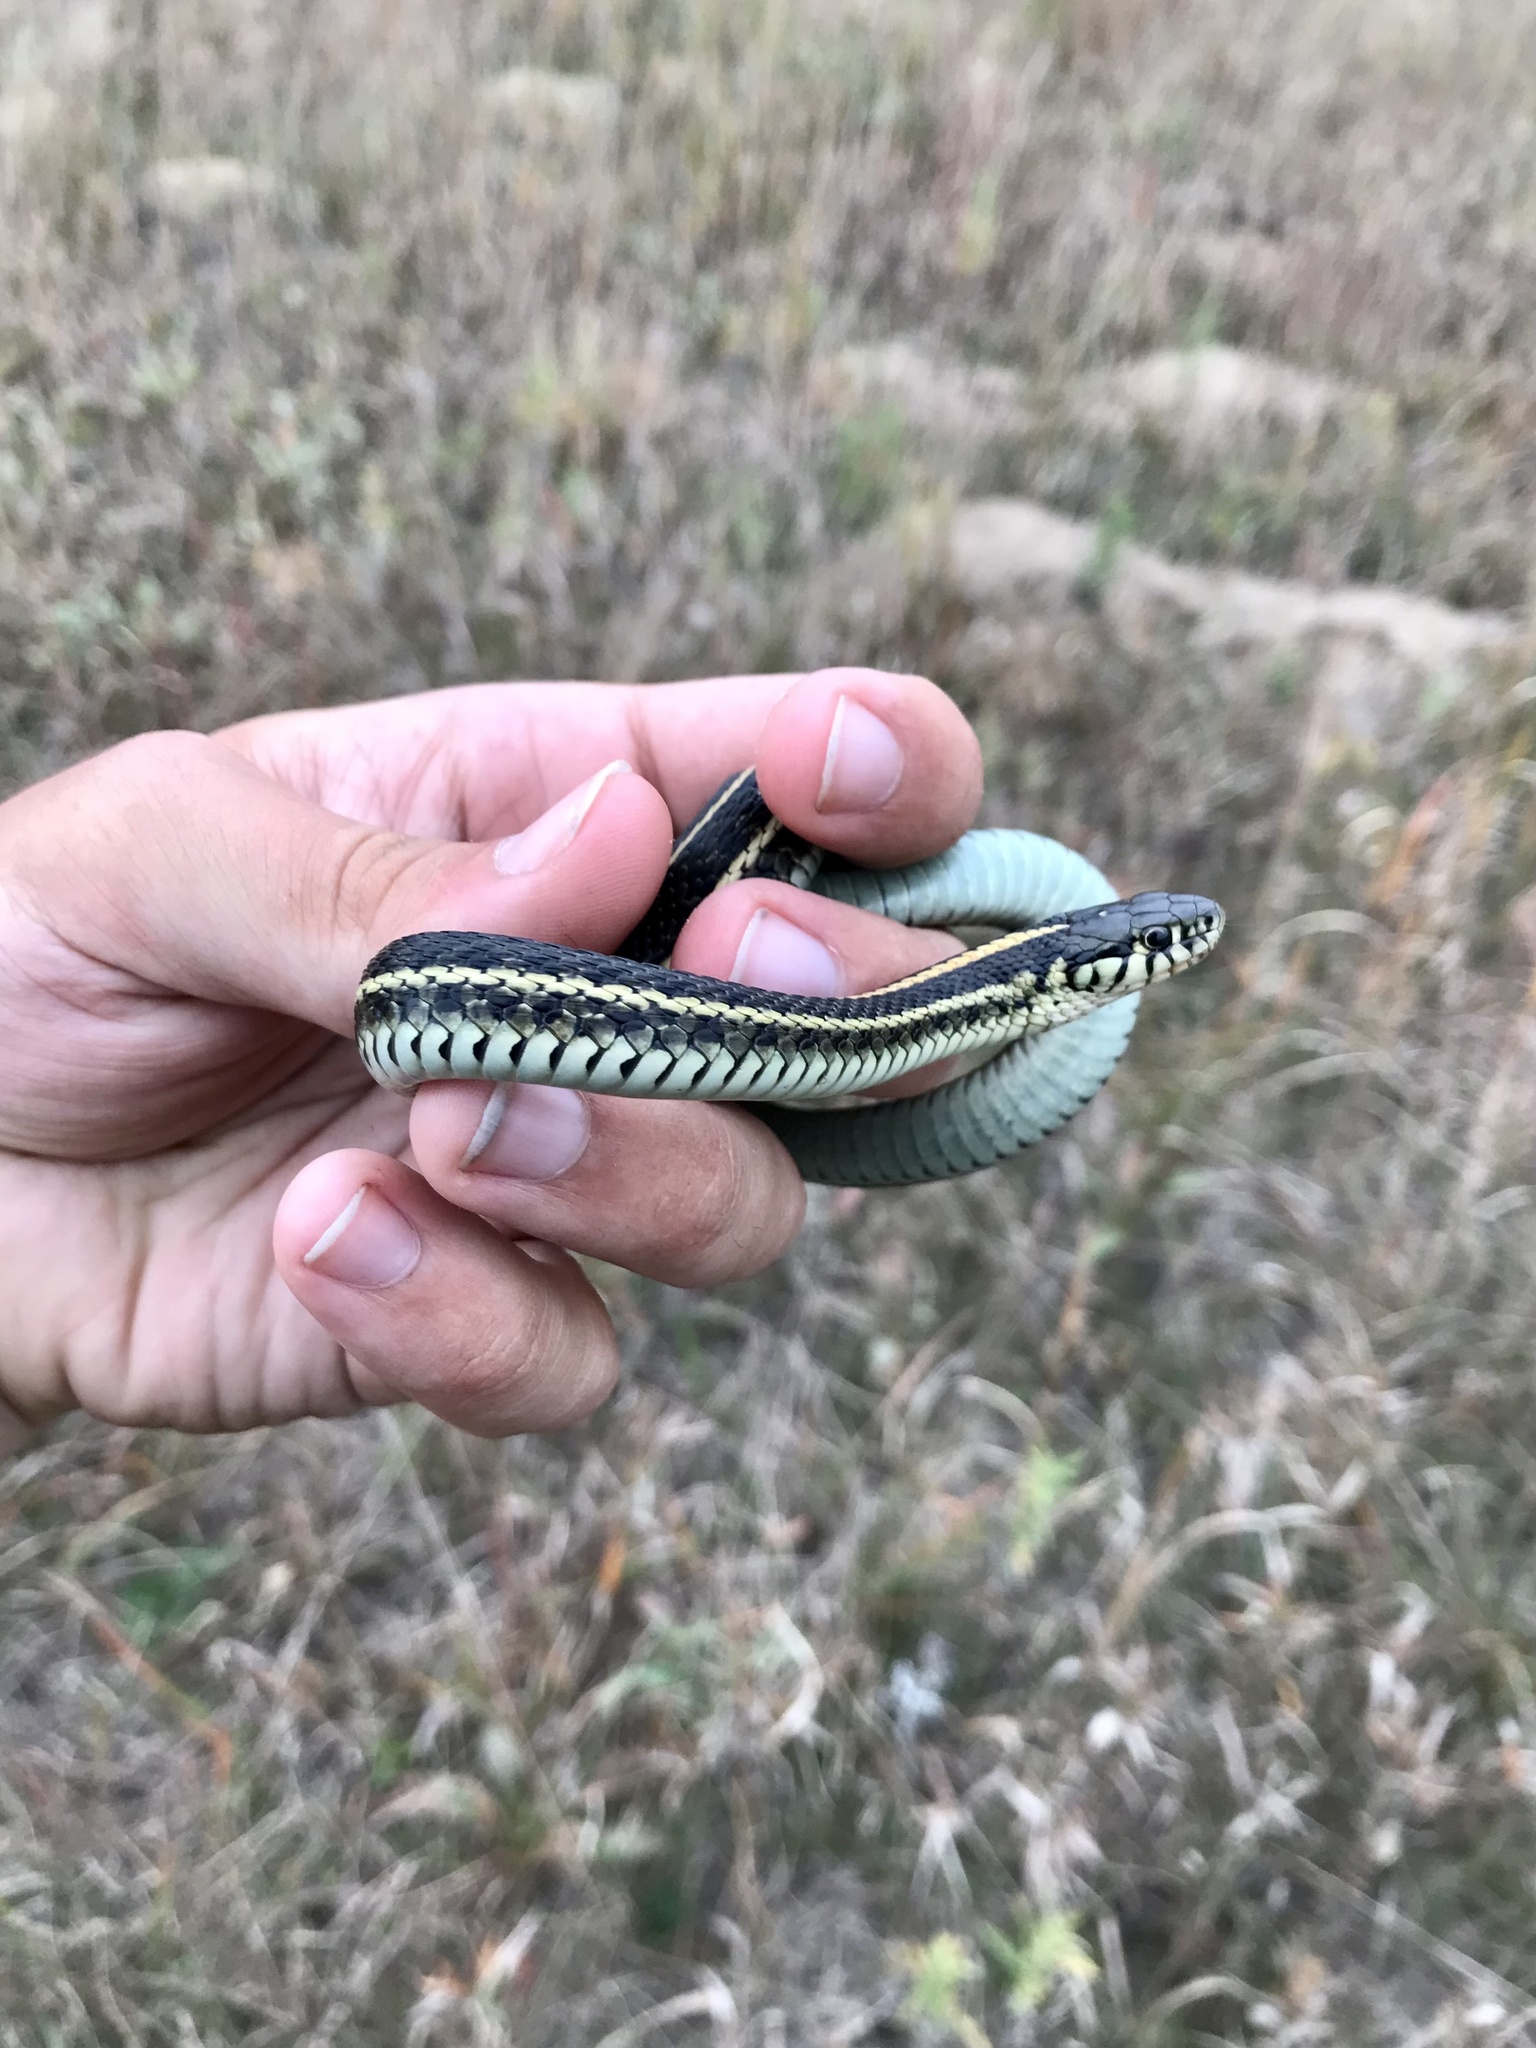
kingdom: Animalia
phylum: Chordata
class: Squamata
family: Colubridae
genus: Thamnophis
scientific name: Thamnophis radix
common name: Plains garter snake
